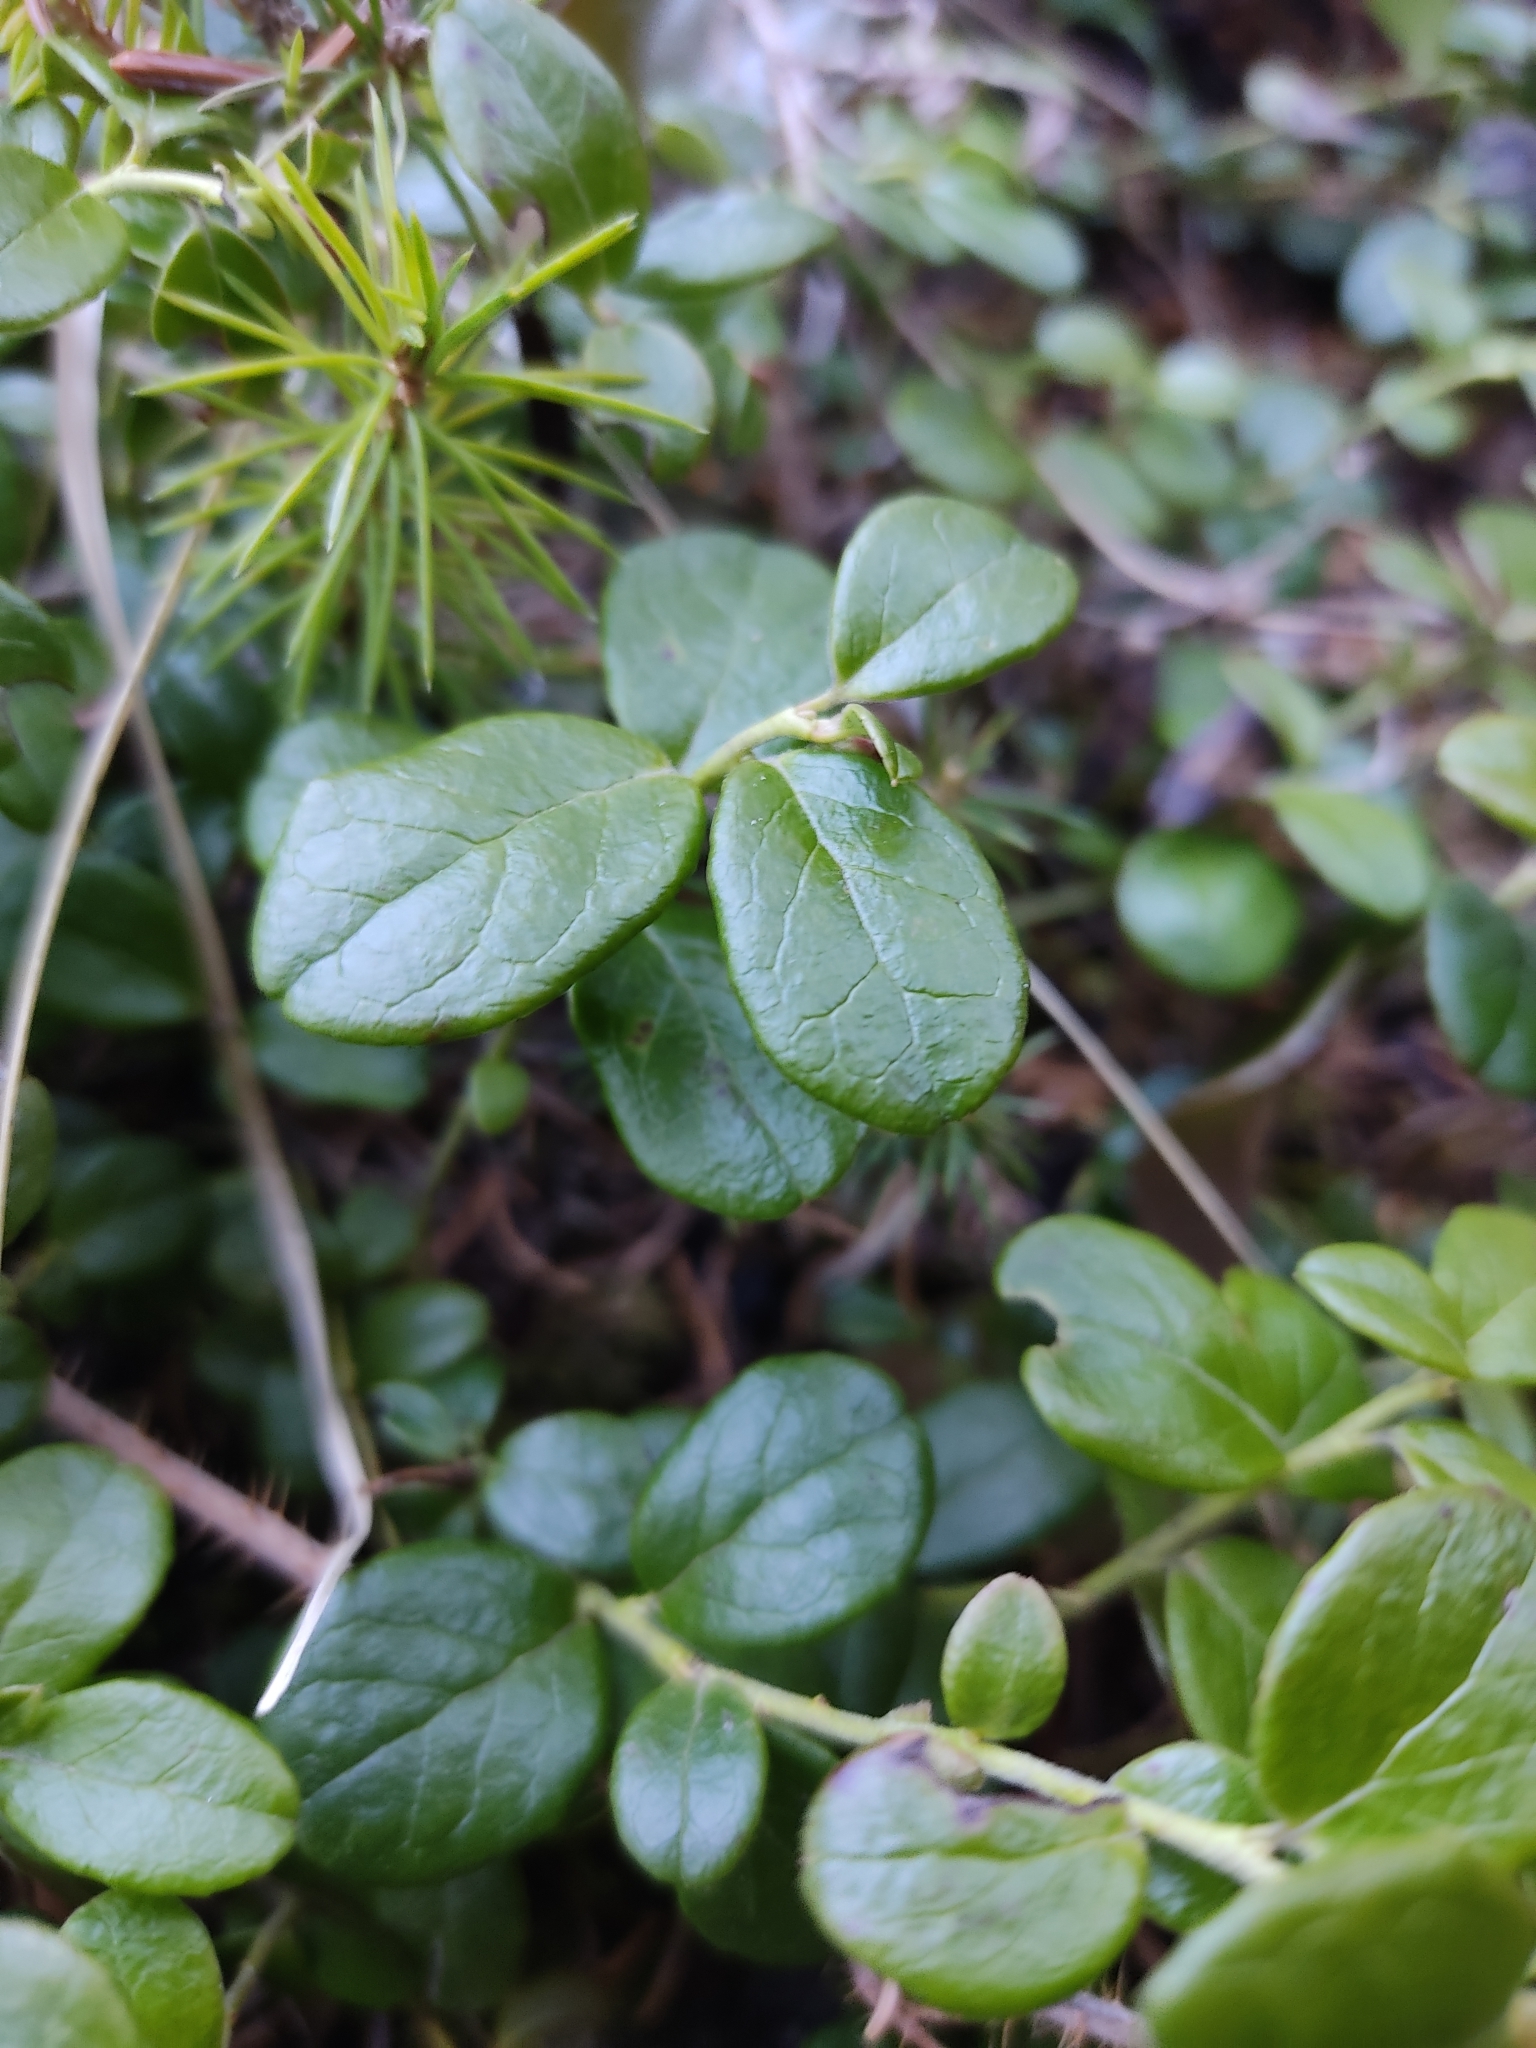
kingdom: Plantae
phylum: Tracheophyta
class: Magnoliopsida
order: Ericales
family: Ericaceae
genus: Vaccinium
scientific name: Vaccinium vitis-idaea
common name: Cowberry
